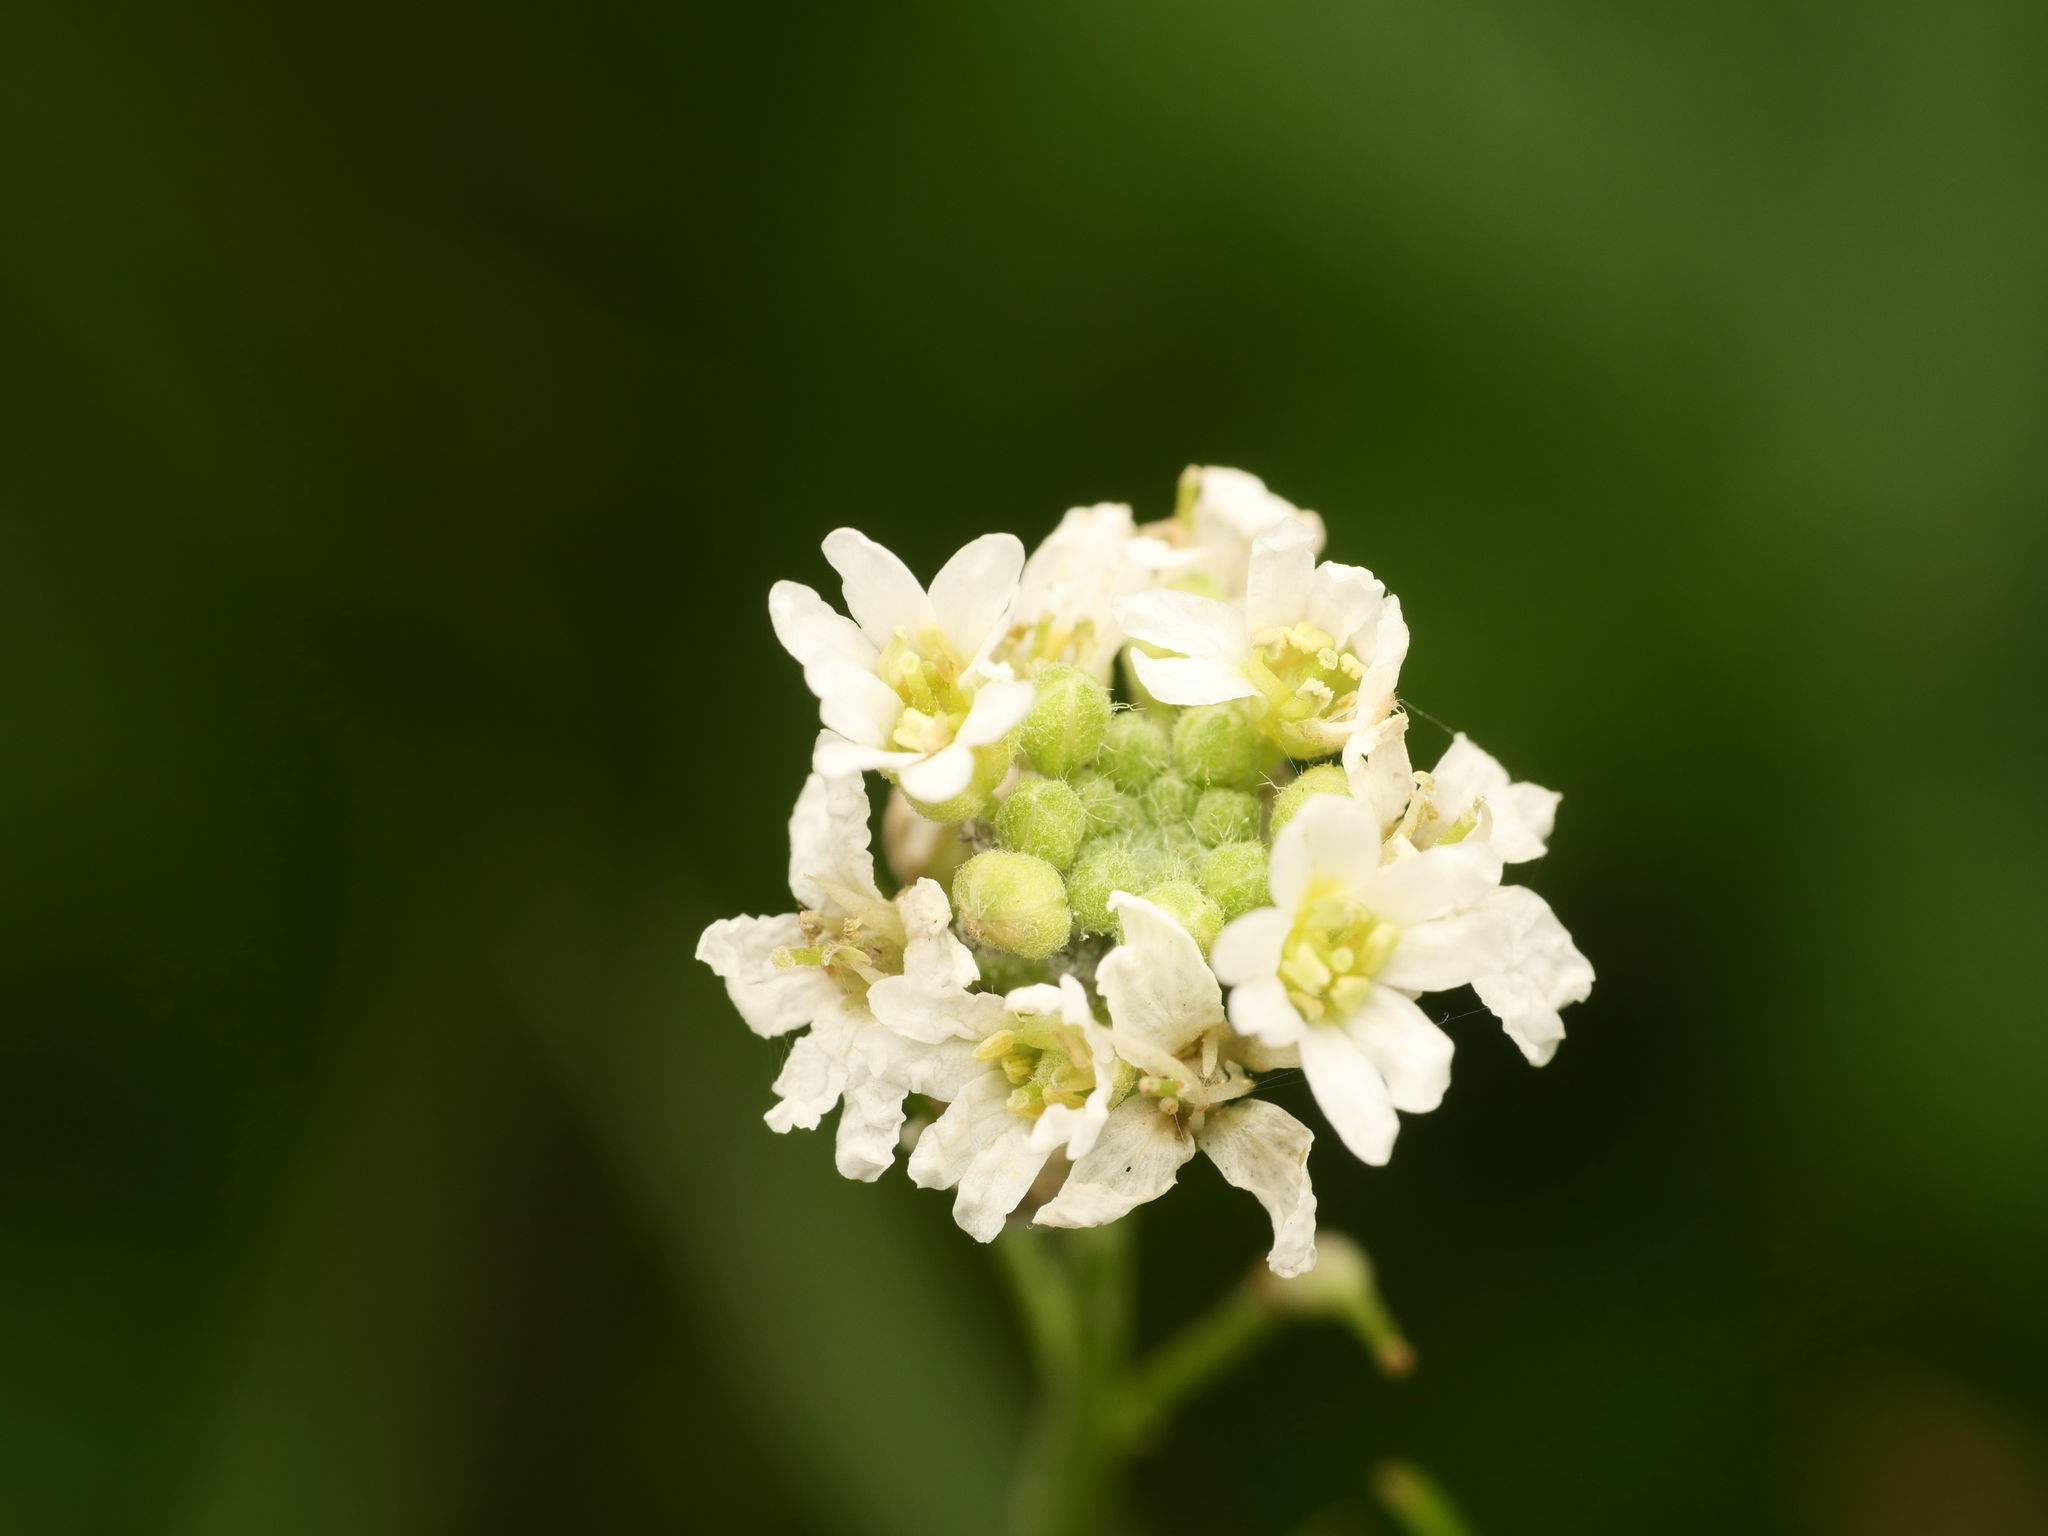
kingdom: Plantae
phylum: Tracheophyta
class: Magnoliopsida
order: Brassicales
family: Brassicaceae
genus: Berteroa
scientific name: Berteroa incana
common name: Hoary alison
